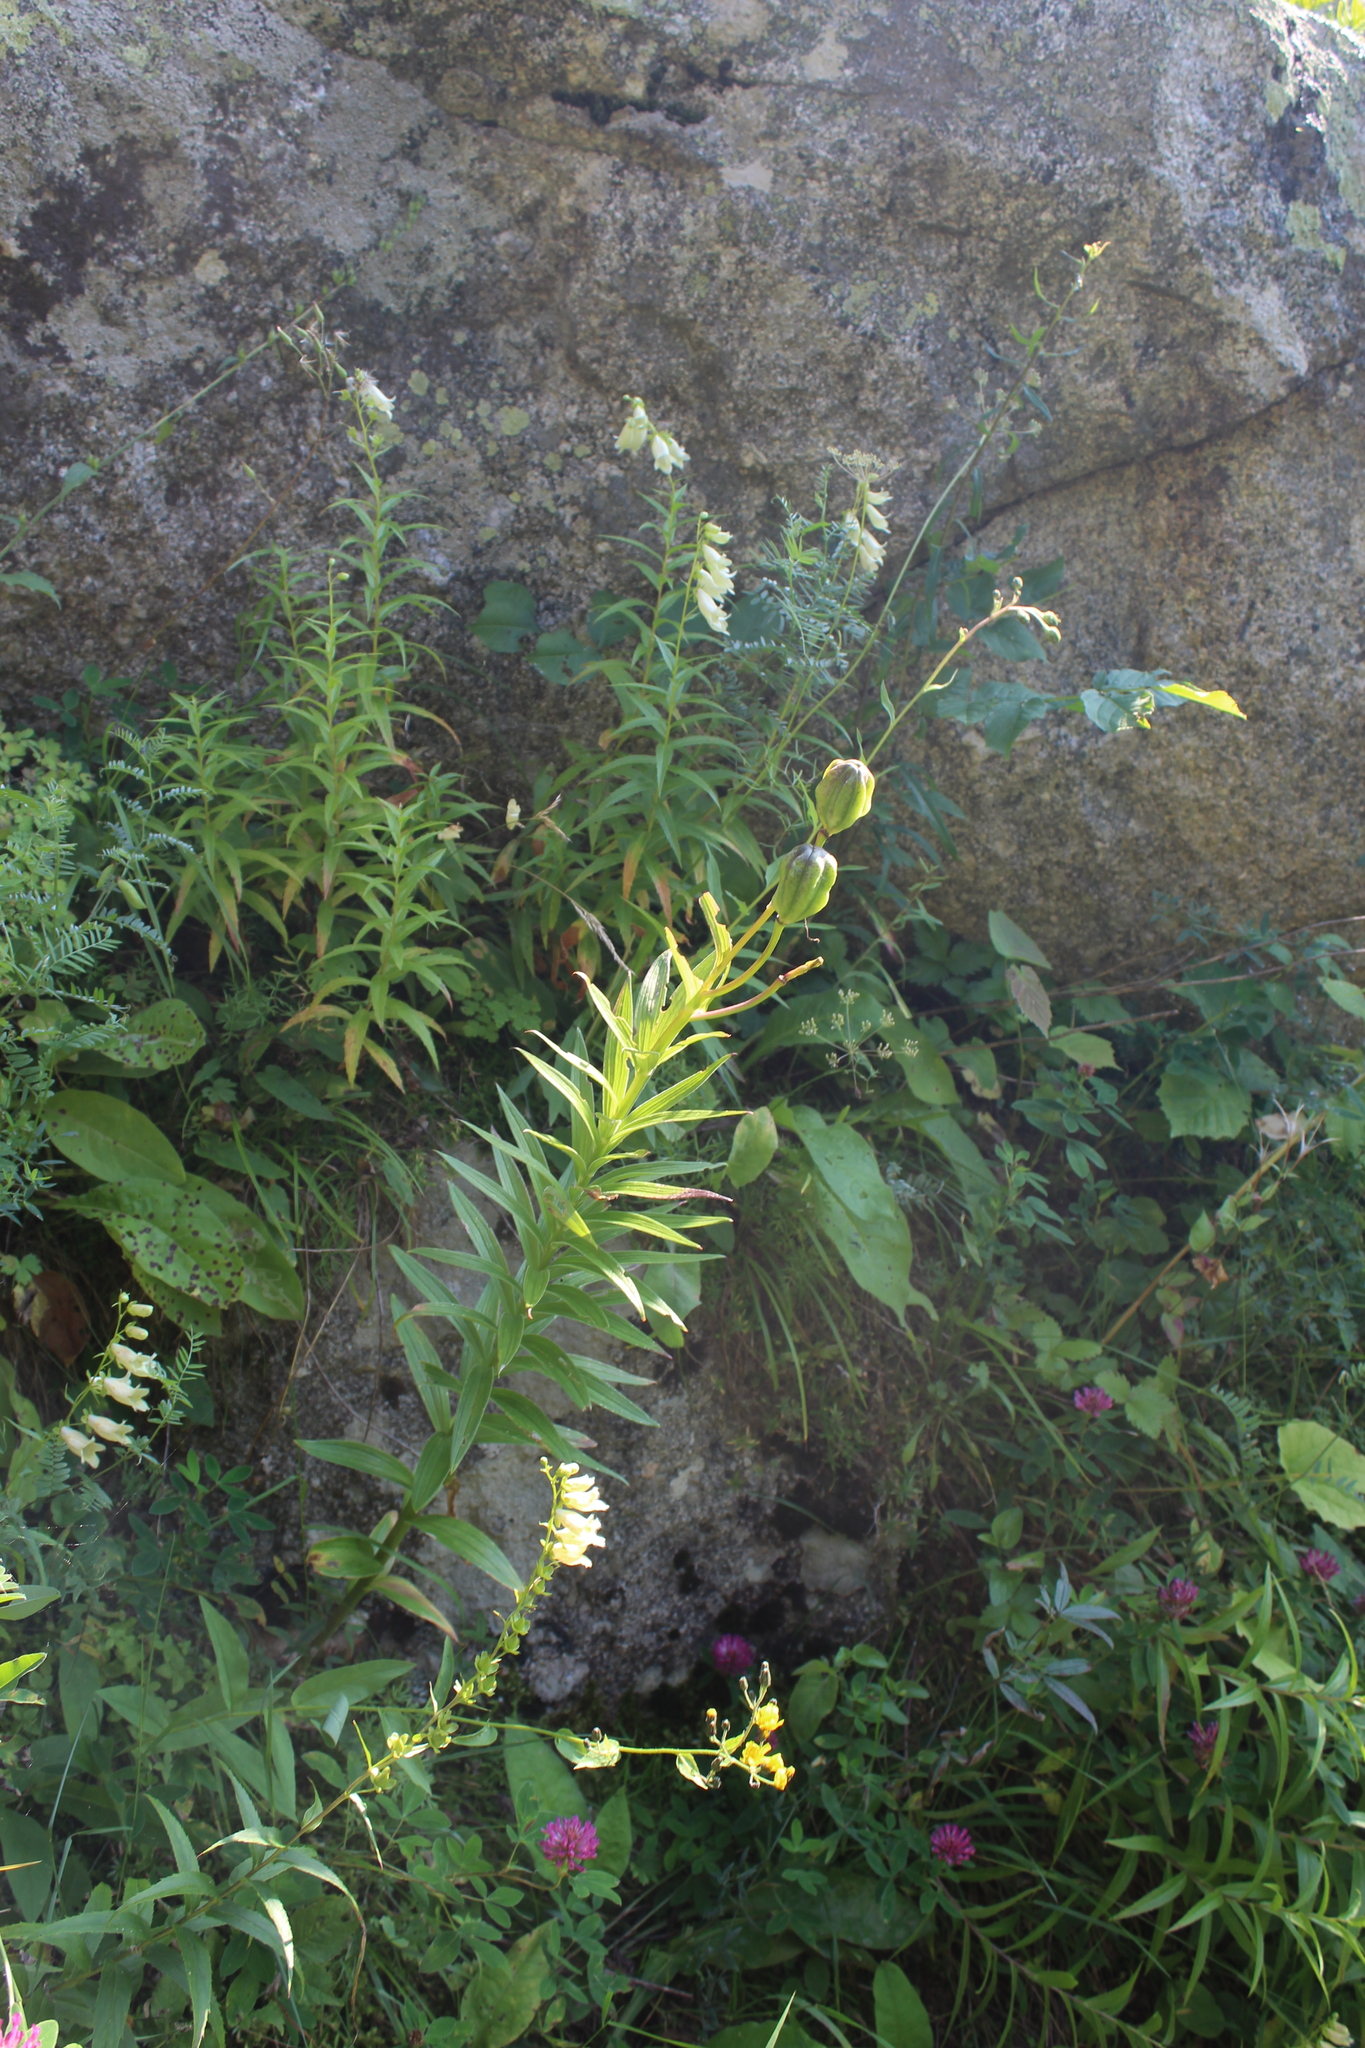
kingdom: Plantae
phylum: Tracheophyta
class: Liliopsida
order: Liliales
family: Liliaceae
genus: Lilium
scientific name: Lilium monadelphum
